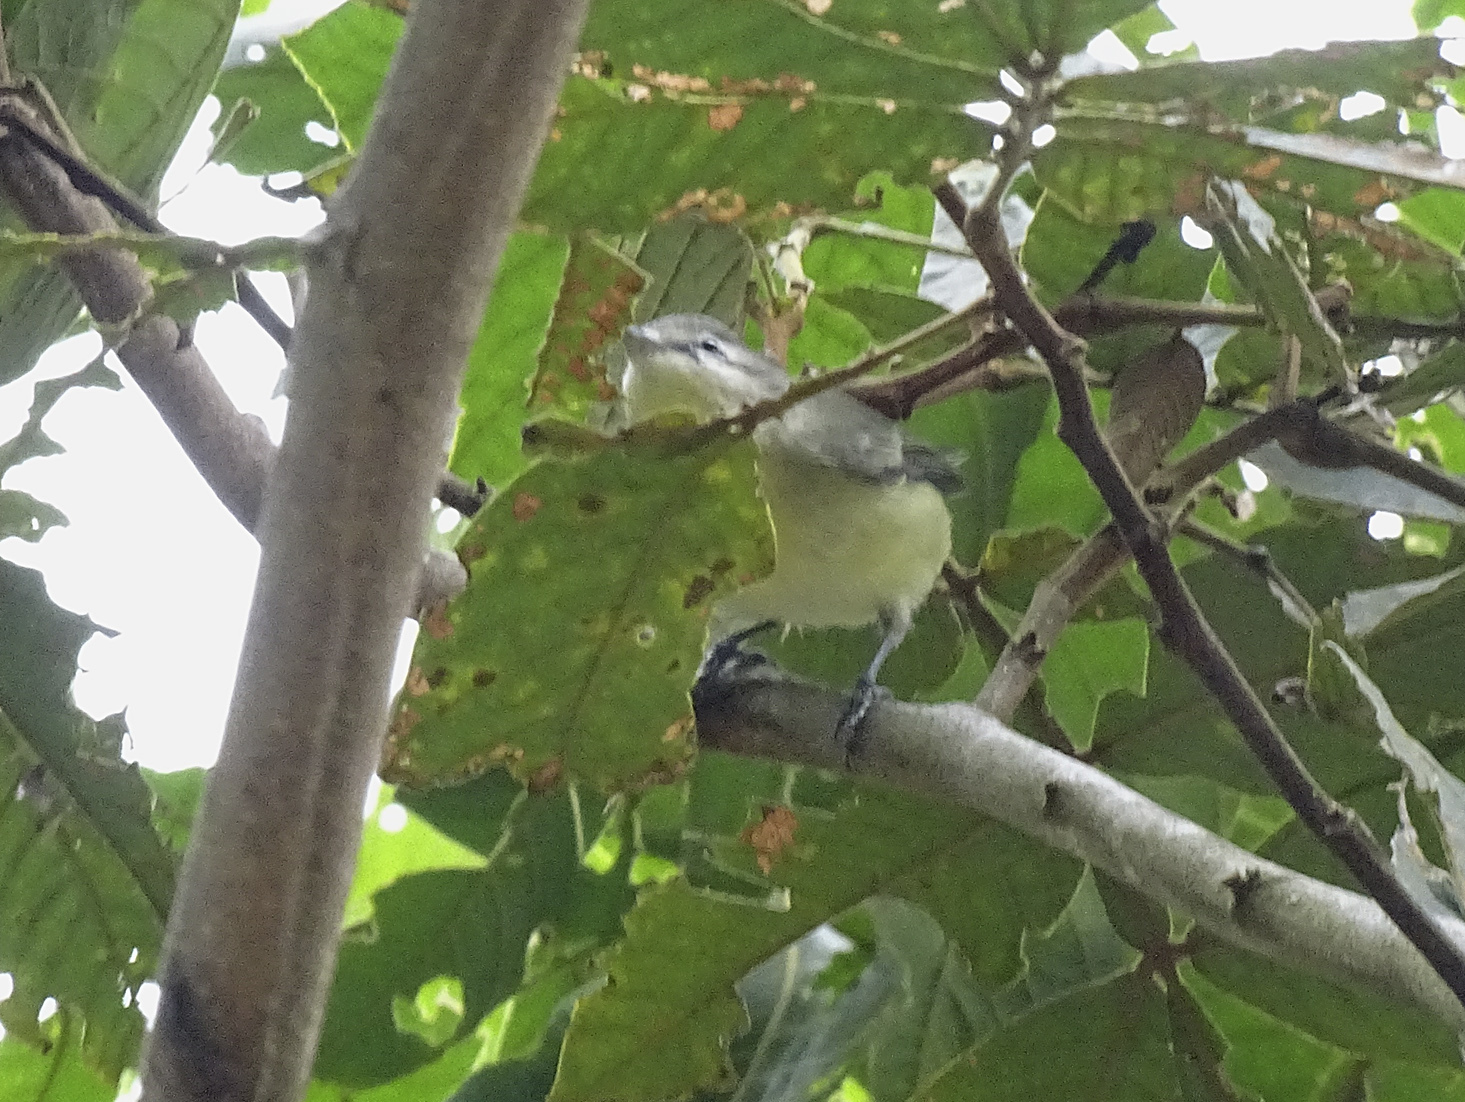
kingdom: Animalia
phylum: Chordata
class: Aves
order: Passeriformes
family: Vireonidae
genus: Vireo
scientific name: Vireo philadelphicus
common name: Philadelphia vireo
